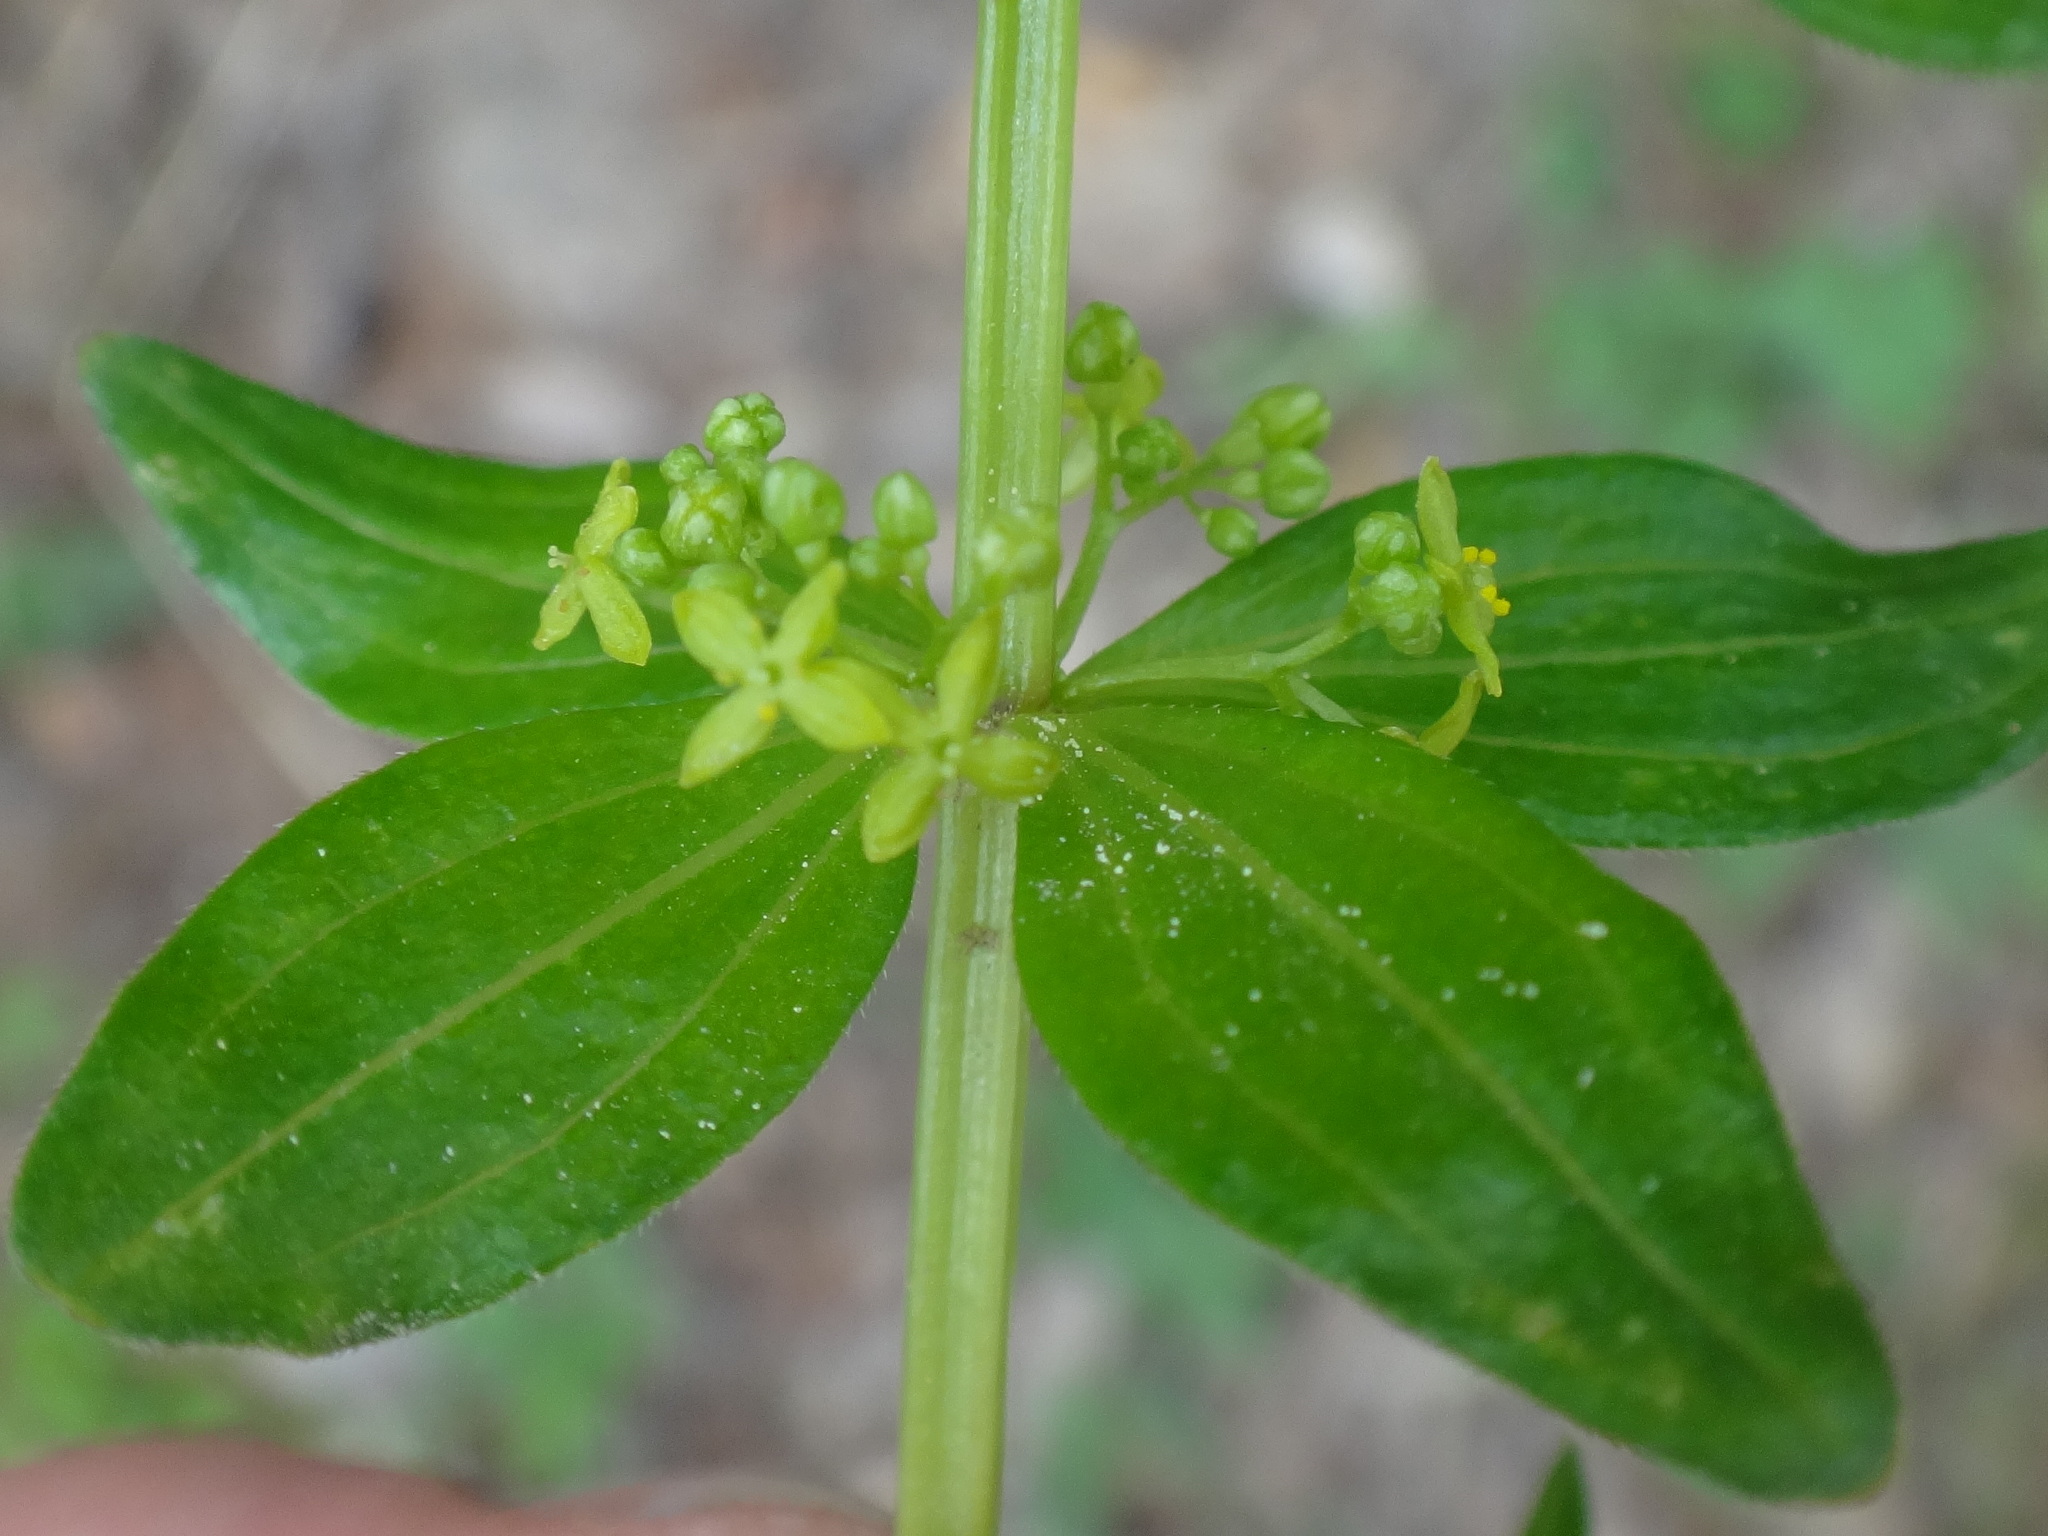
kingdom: Plantae
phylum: Tracheophyta
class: Magnoliopsida
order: Gentianales
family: Rubiaceae
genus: Cruciata
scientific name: Cruciata glabra
